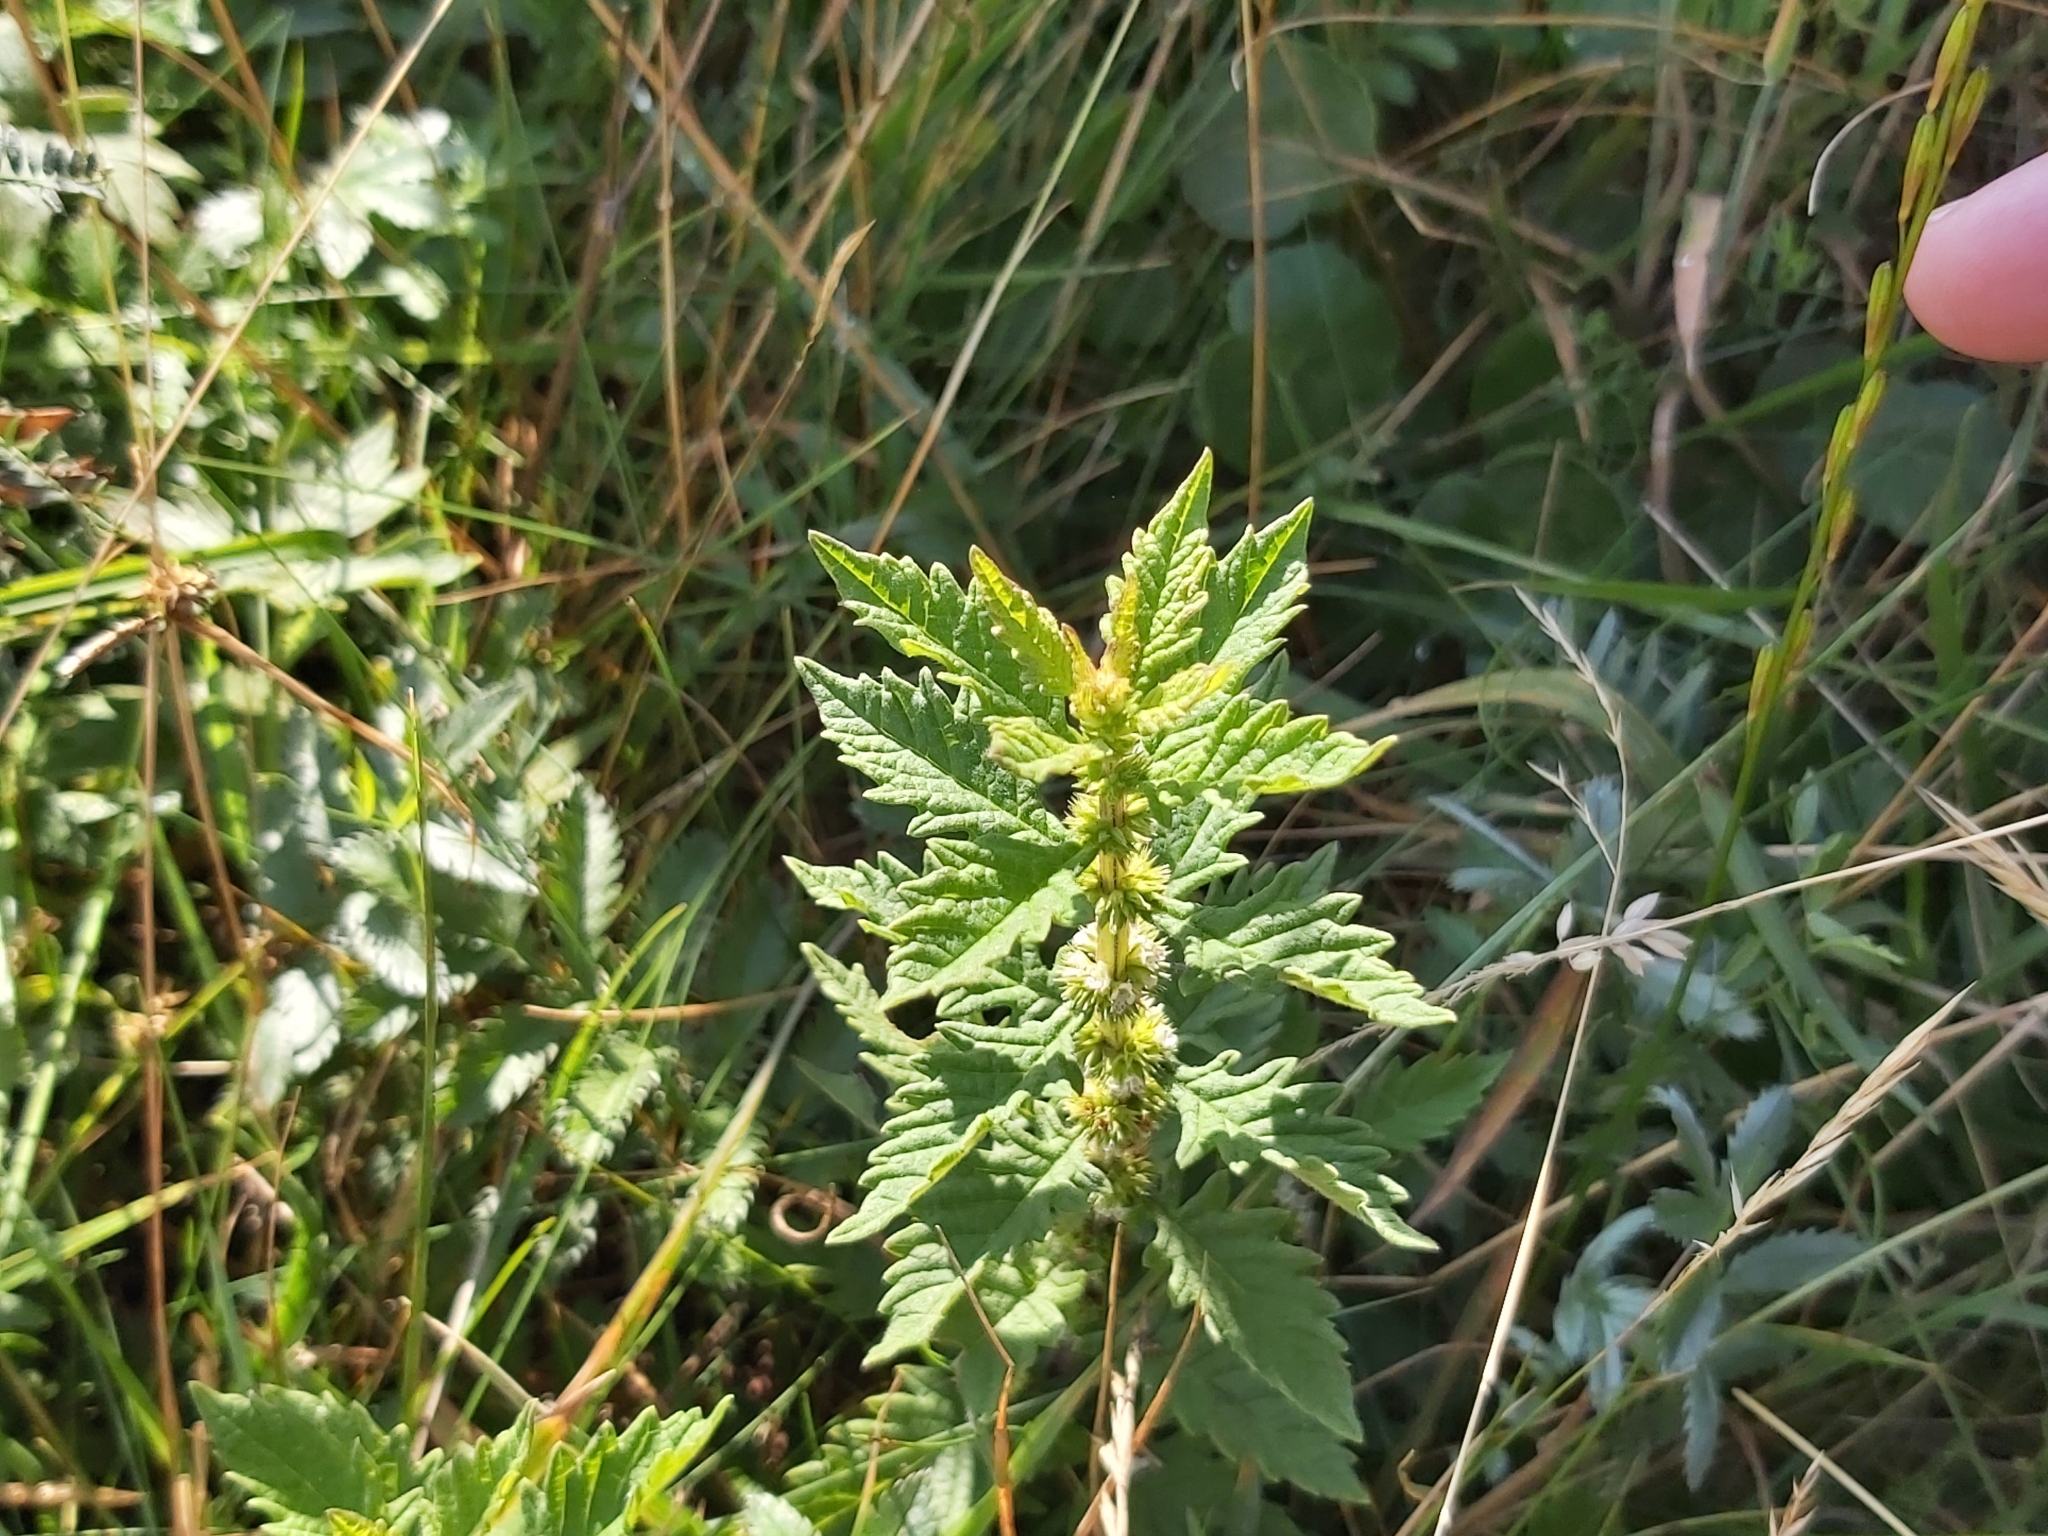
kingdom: Plantae
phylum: Tracheophyta
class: Magnoliopsida
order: Lamiales
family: Lamiaceae
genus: Lycopus
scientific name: Lycopus europaeus
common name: European bugleweed
